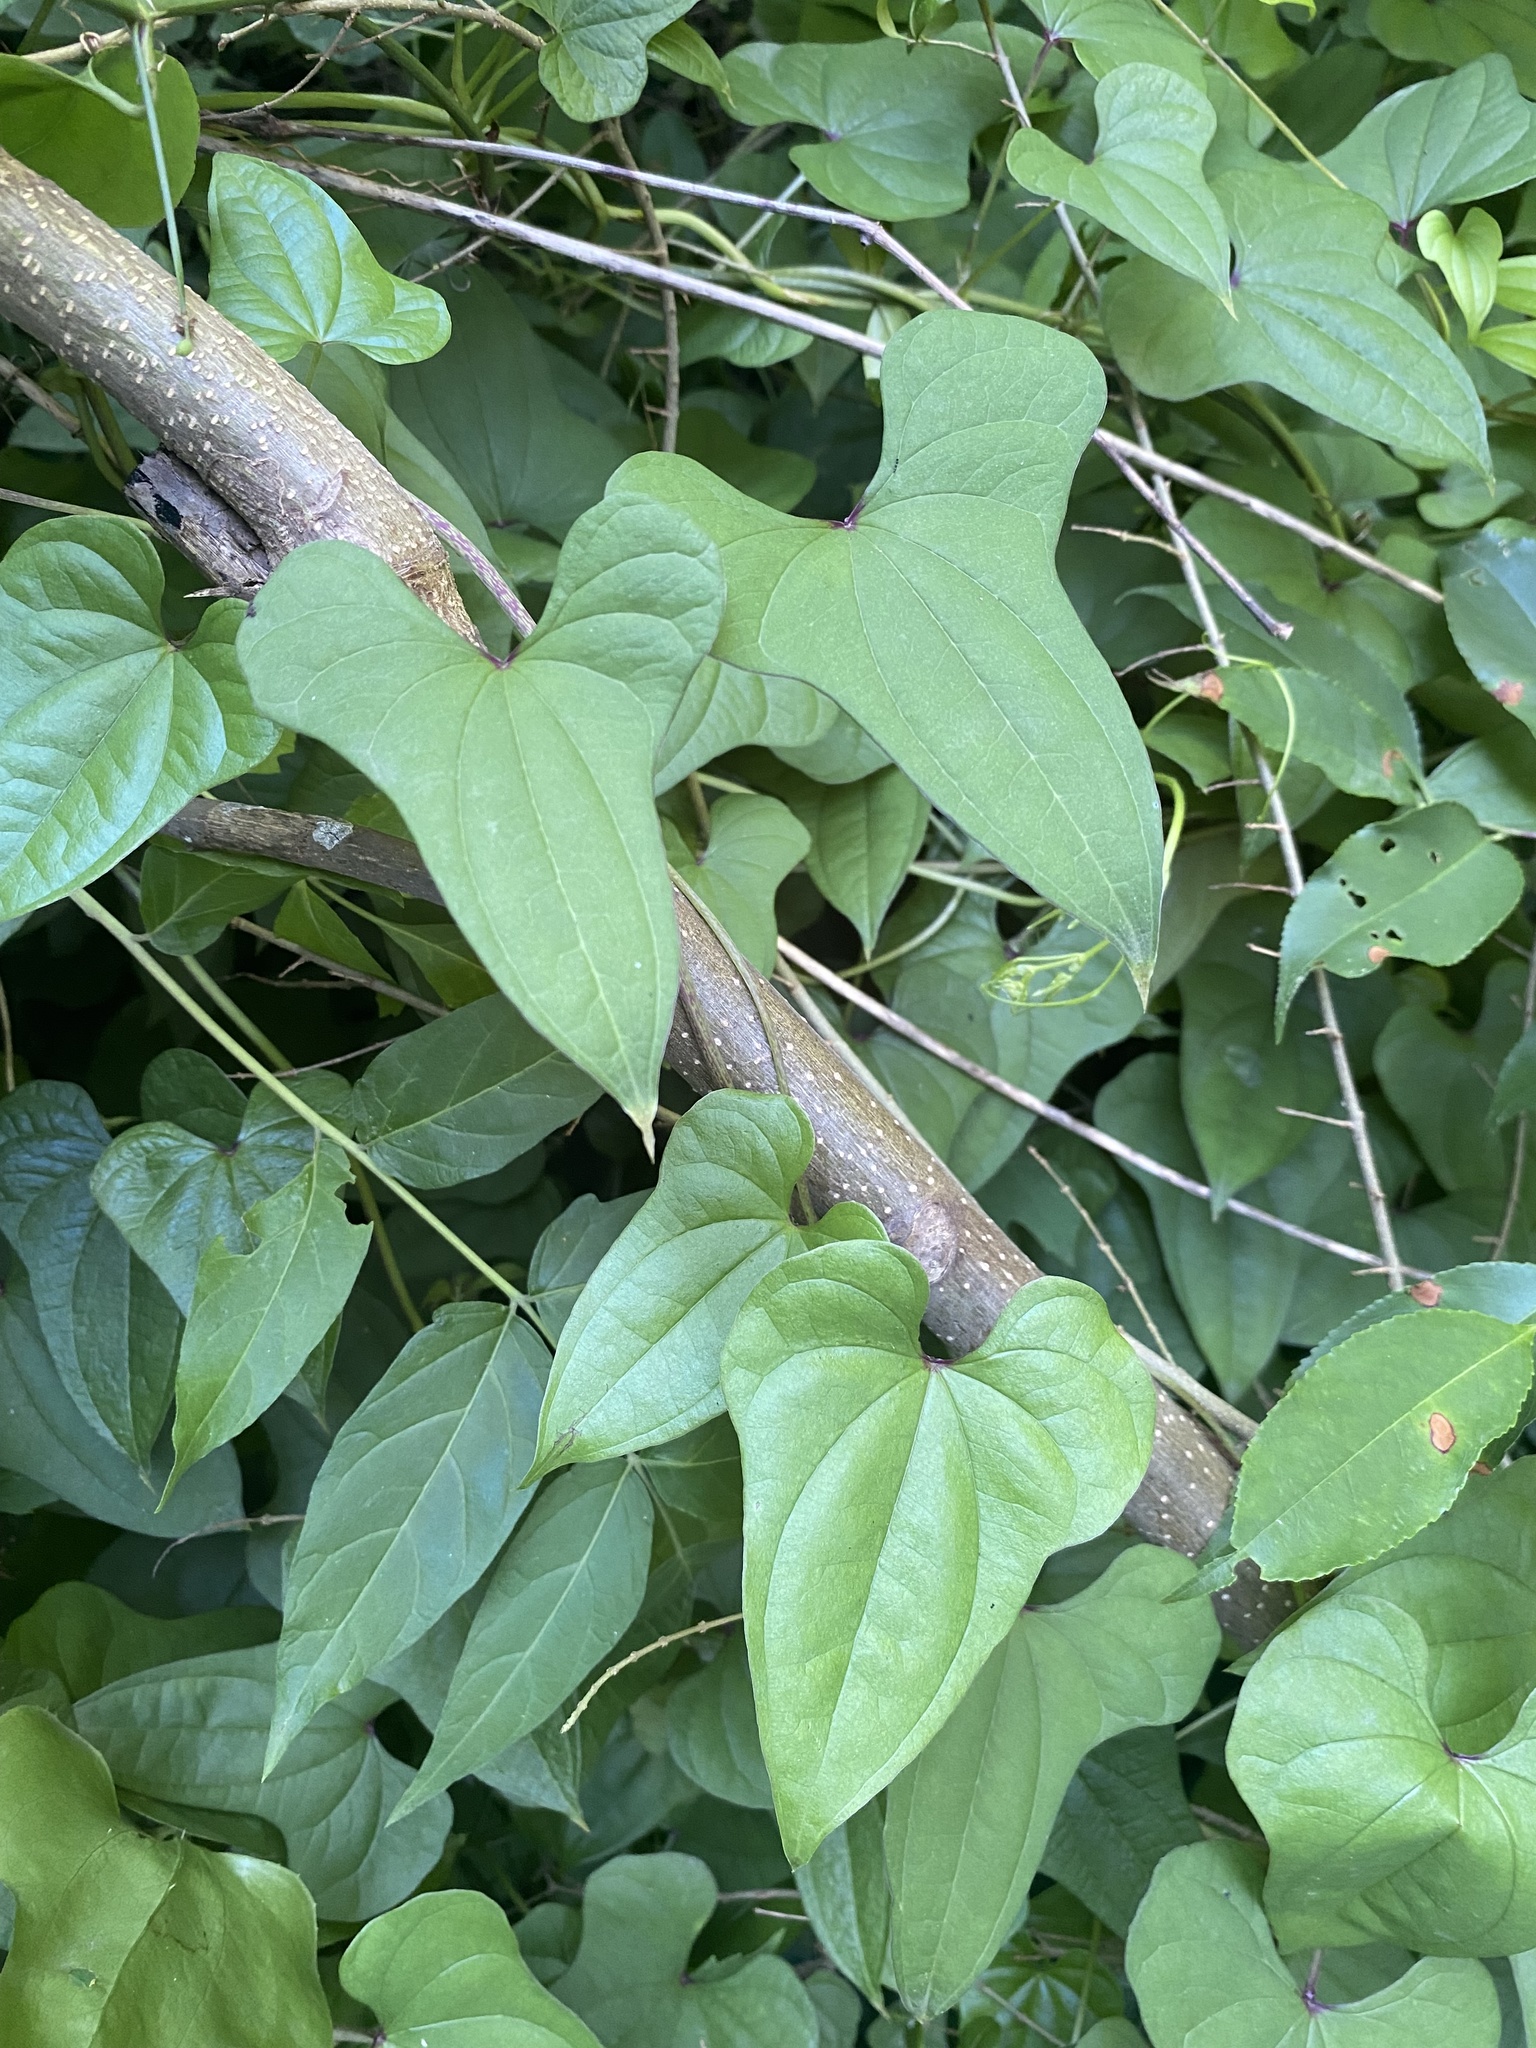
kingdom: Plantae
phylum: Tracheophyta
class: Liliopsida
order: Dioscoreales
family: Dioscoreaceae
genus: Dioscorea
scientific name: Dioscorea polystachya
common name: Chinese yam
